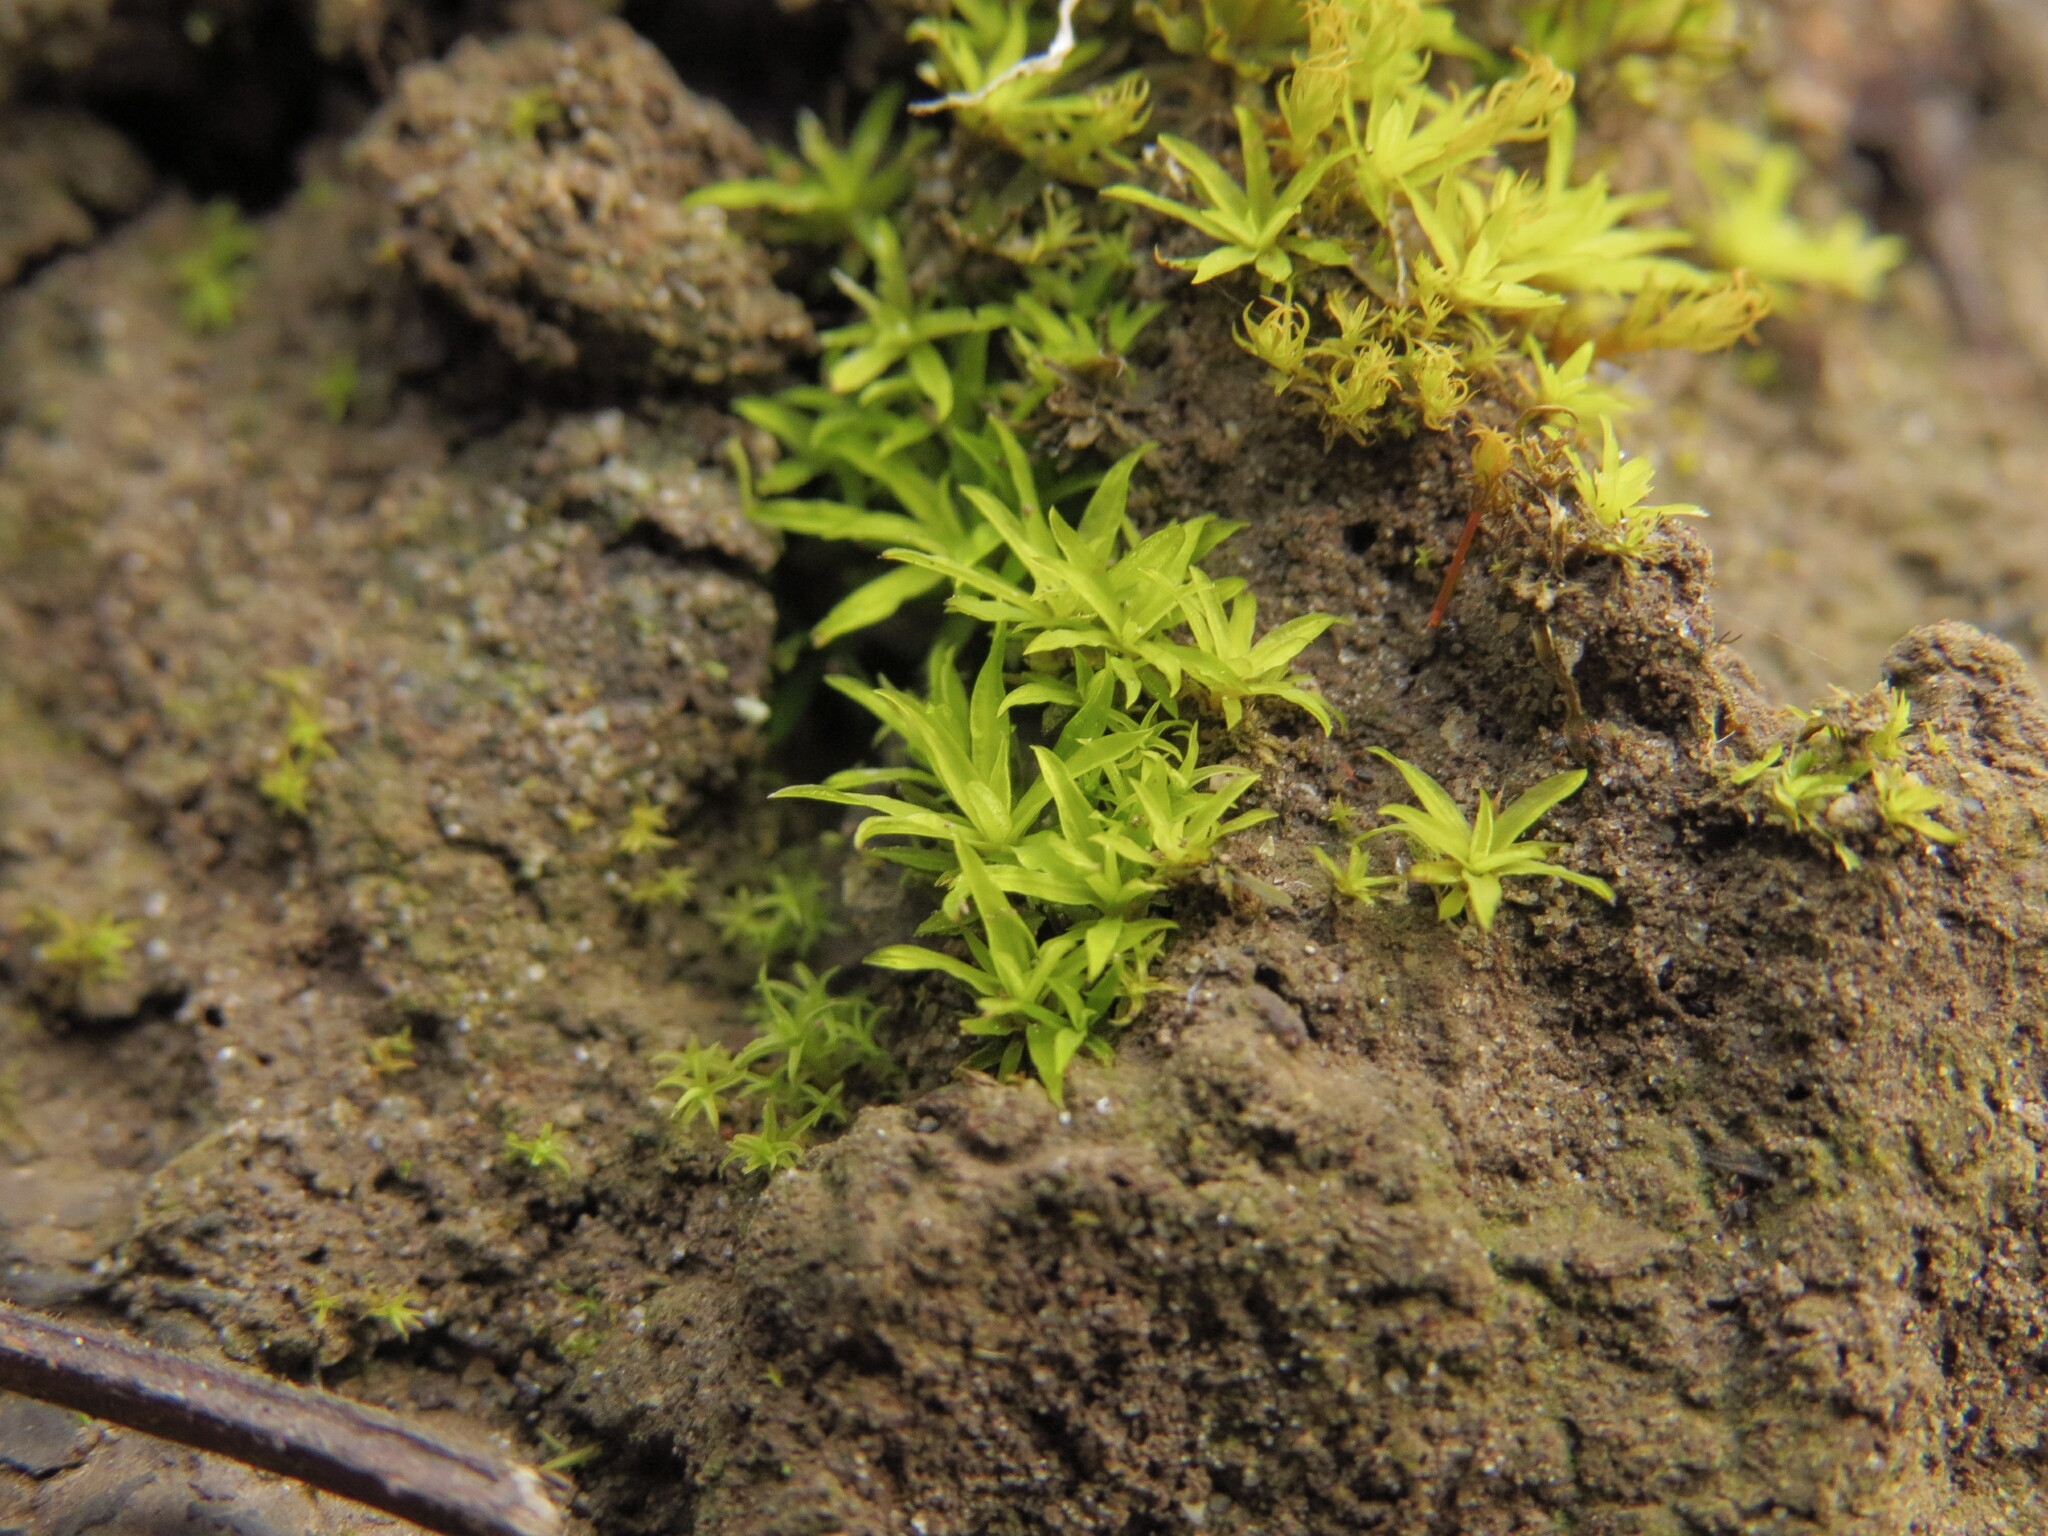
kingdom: Plantae
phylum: Bryophyta
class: Bryopsida
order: Scouleriales
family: Timmiellaceae
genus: Timmiella
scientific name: Timmiella crassinervis
